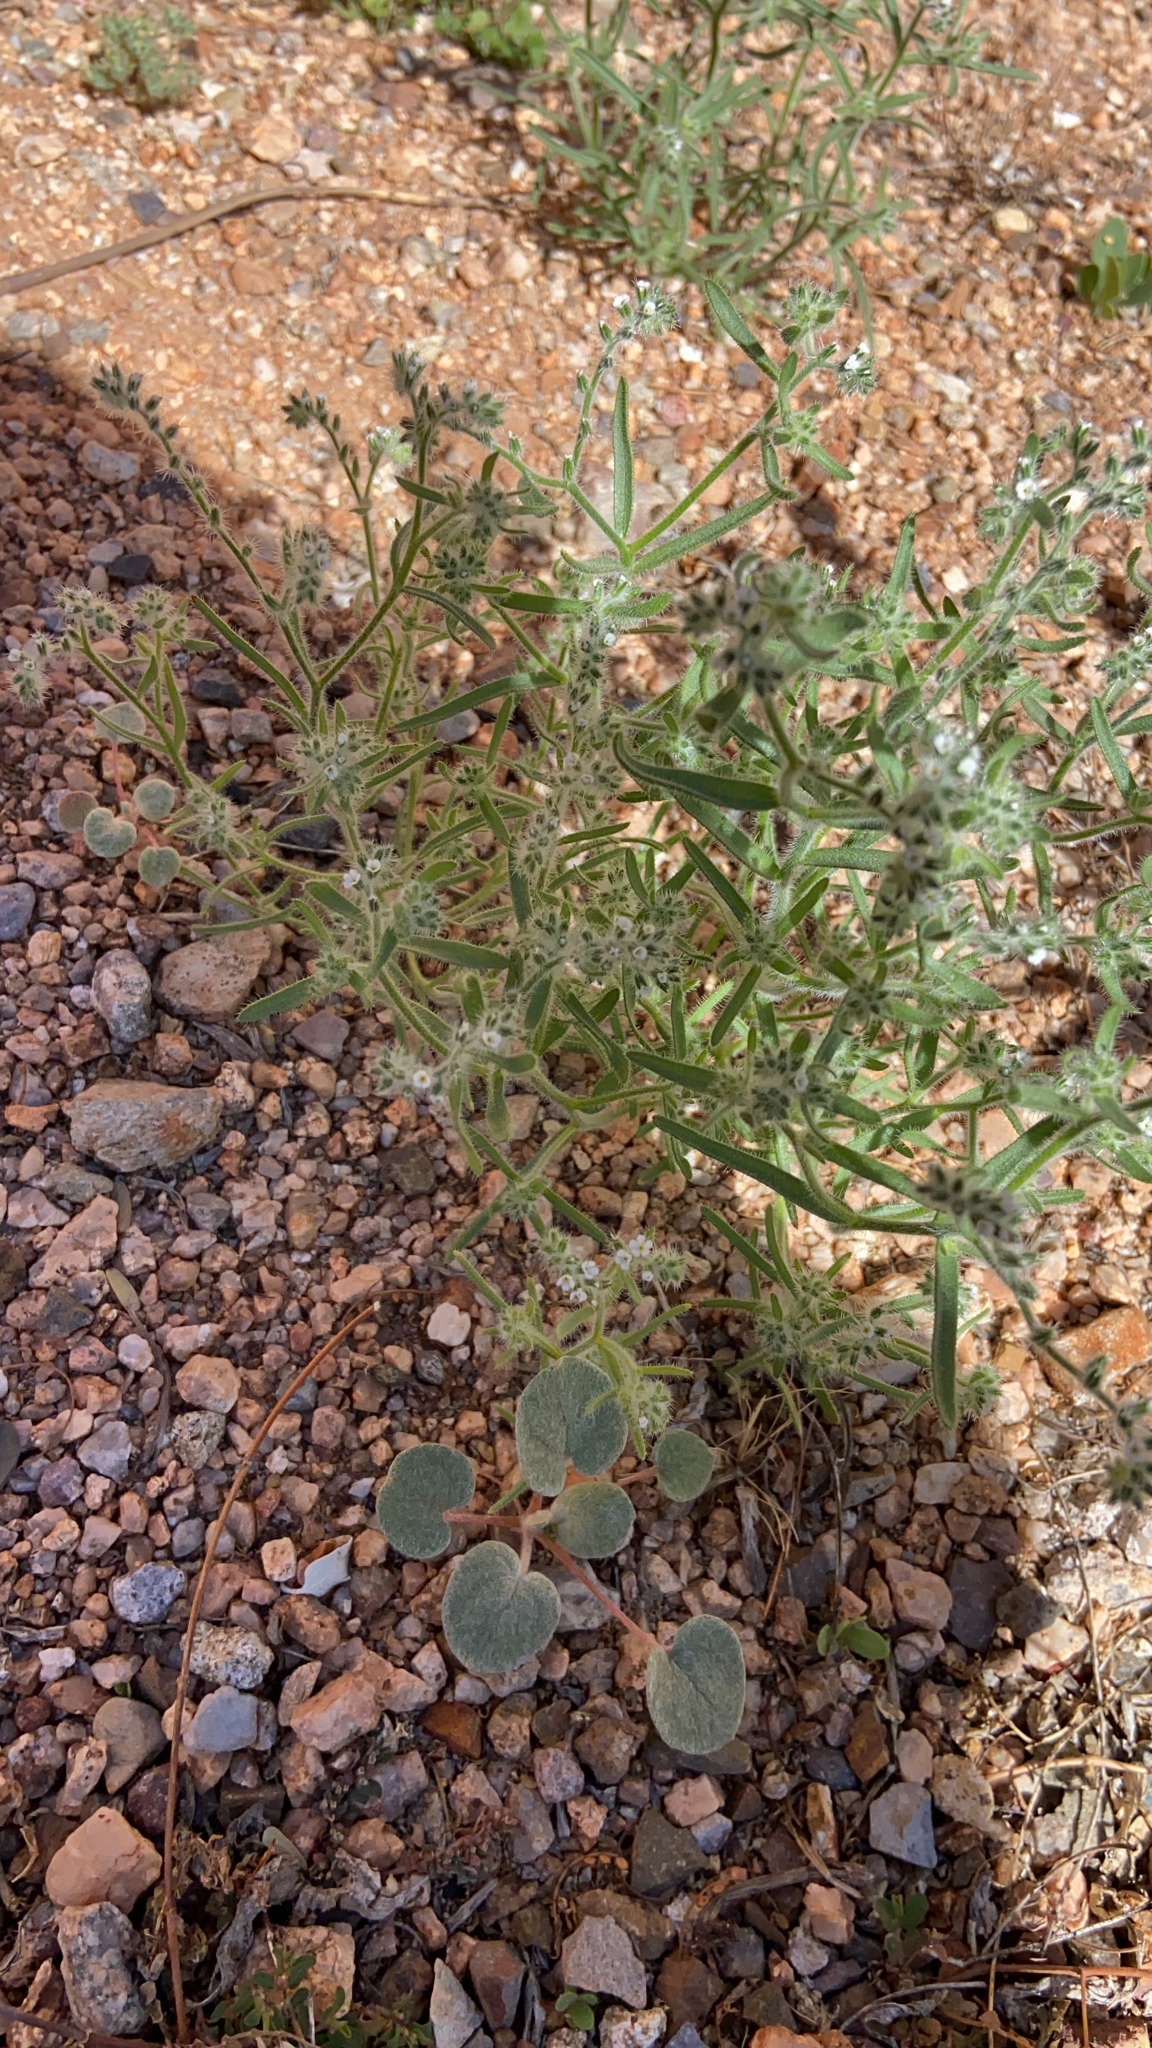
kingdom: Plantae
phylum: Tracheophyta
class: Magnoliopsida
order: Boraginales
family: Boraginaceae
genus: Johnstonella
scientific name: Johnstonella angustifolia
